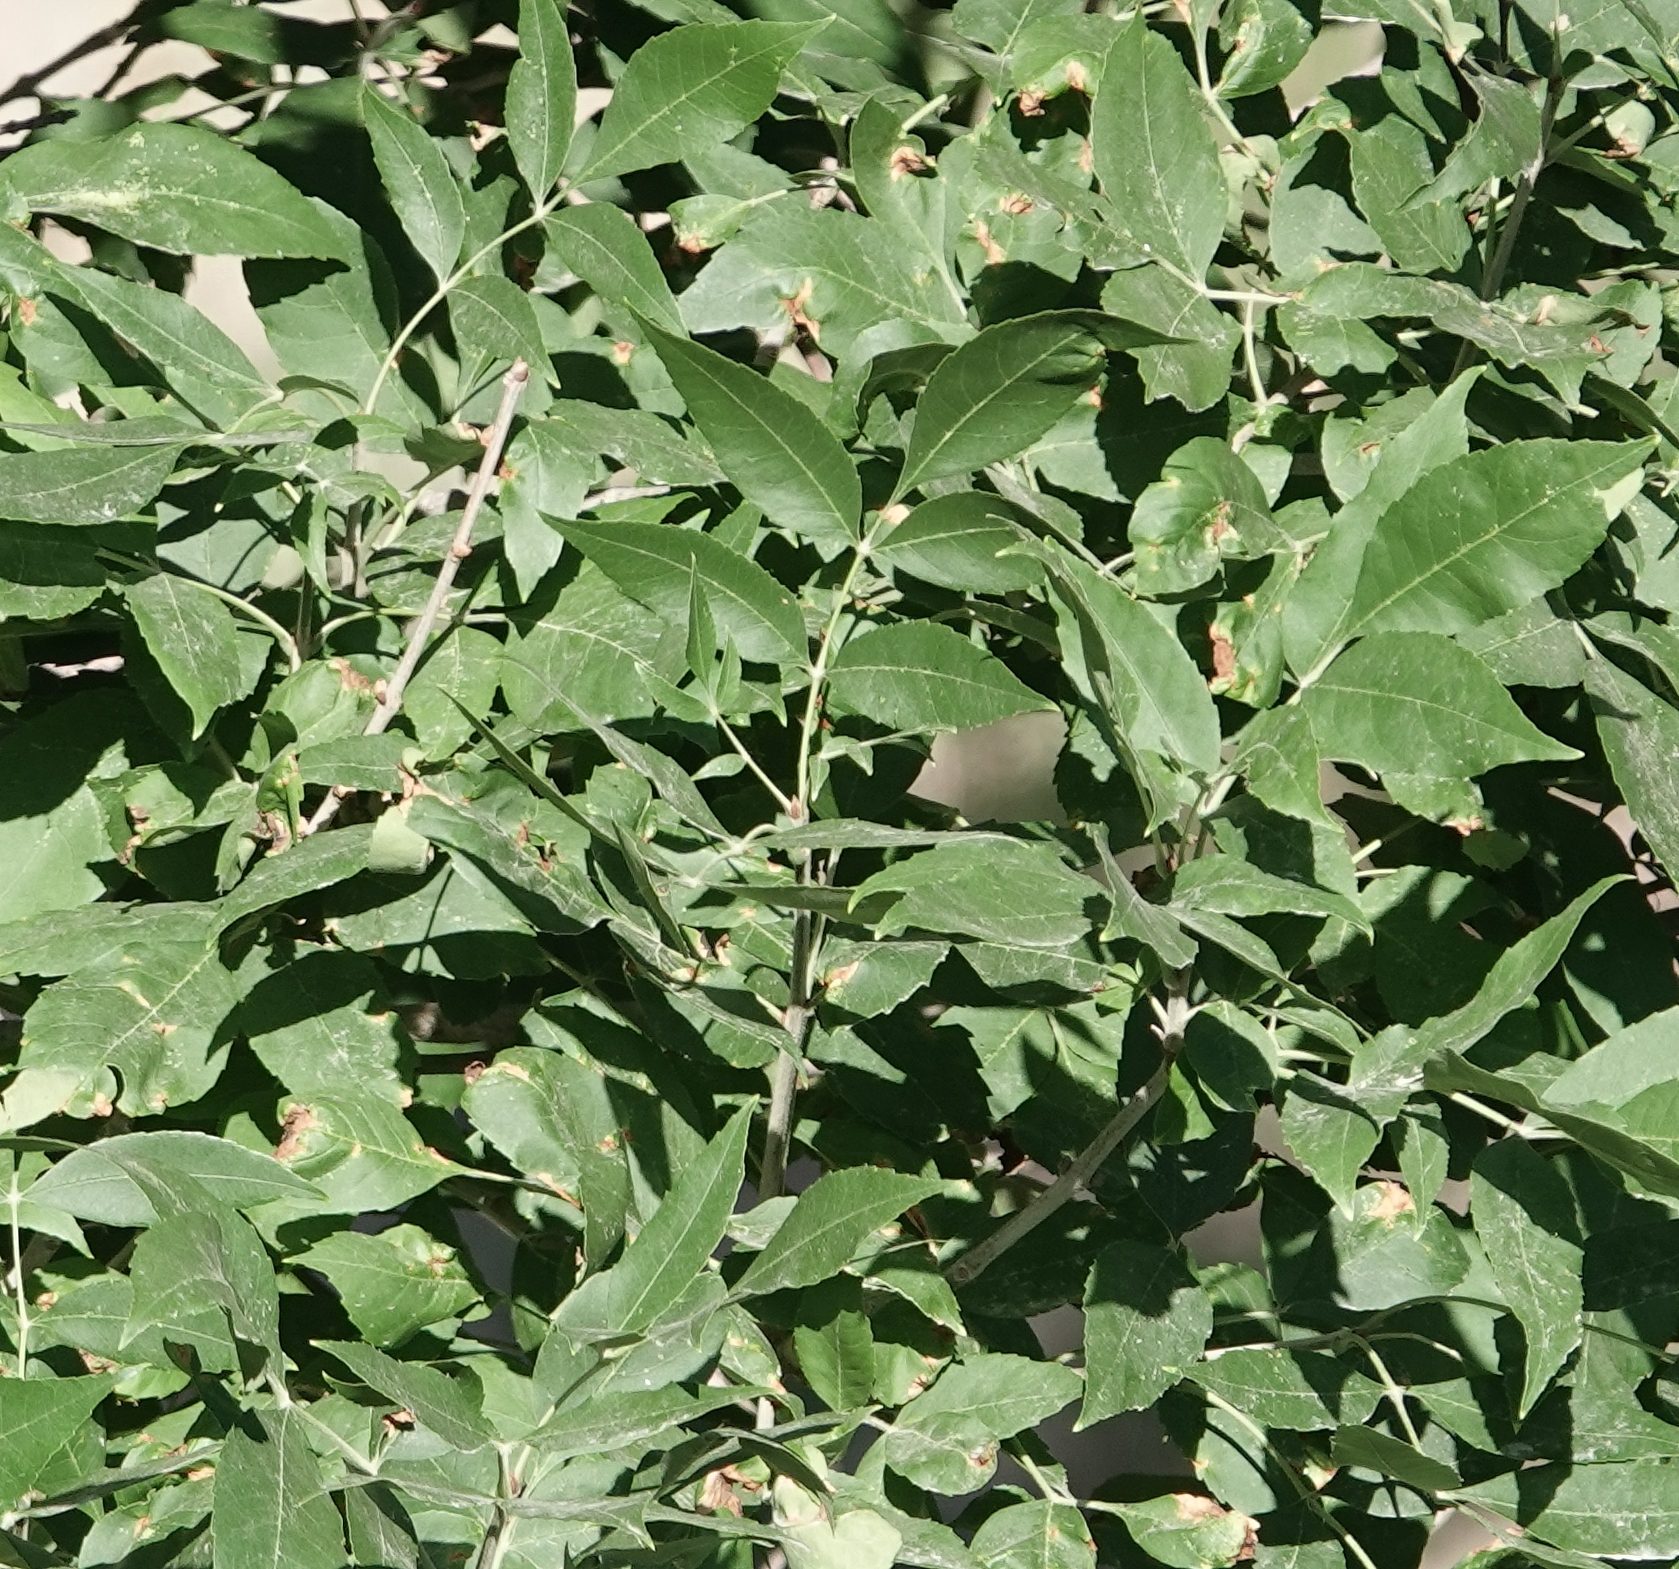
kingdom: Plantae
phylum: Tracheophyta
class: Magnoliopsida
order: Lamiales
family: Oleaceae
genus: Fraxinus
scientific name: Fraxinus pennsylvanica
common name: Green ash
